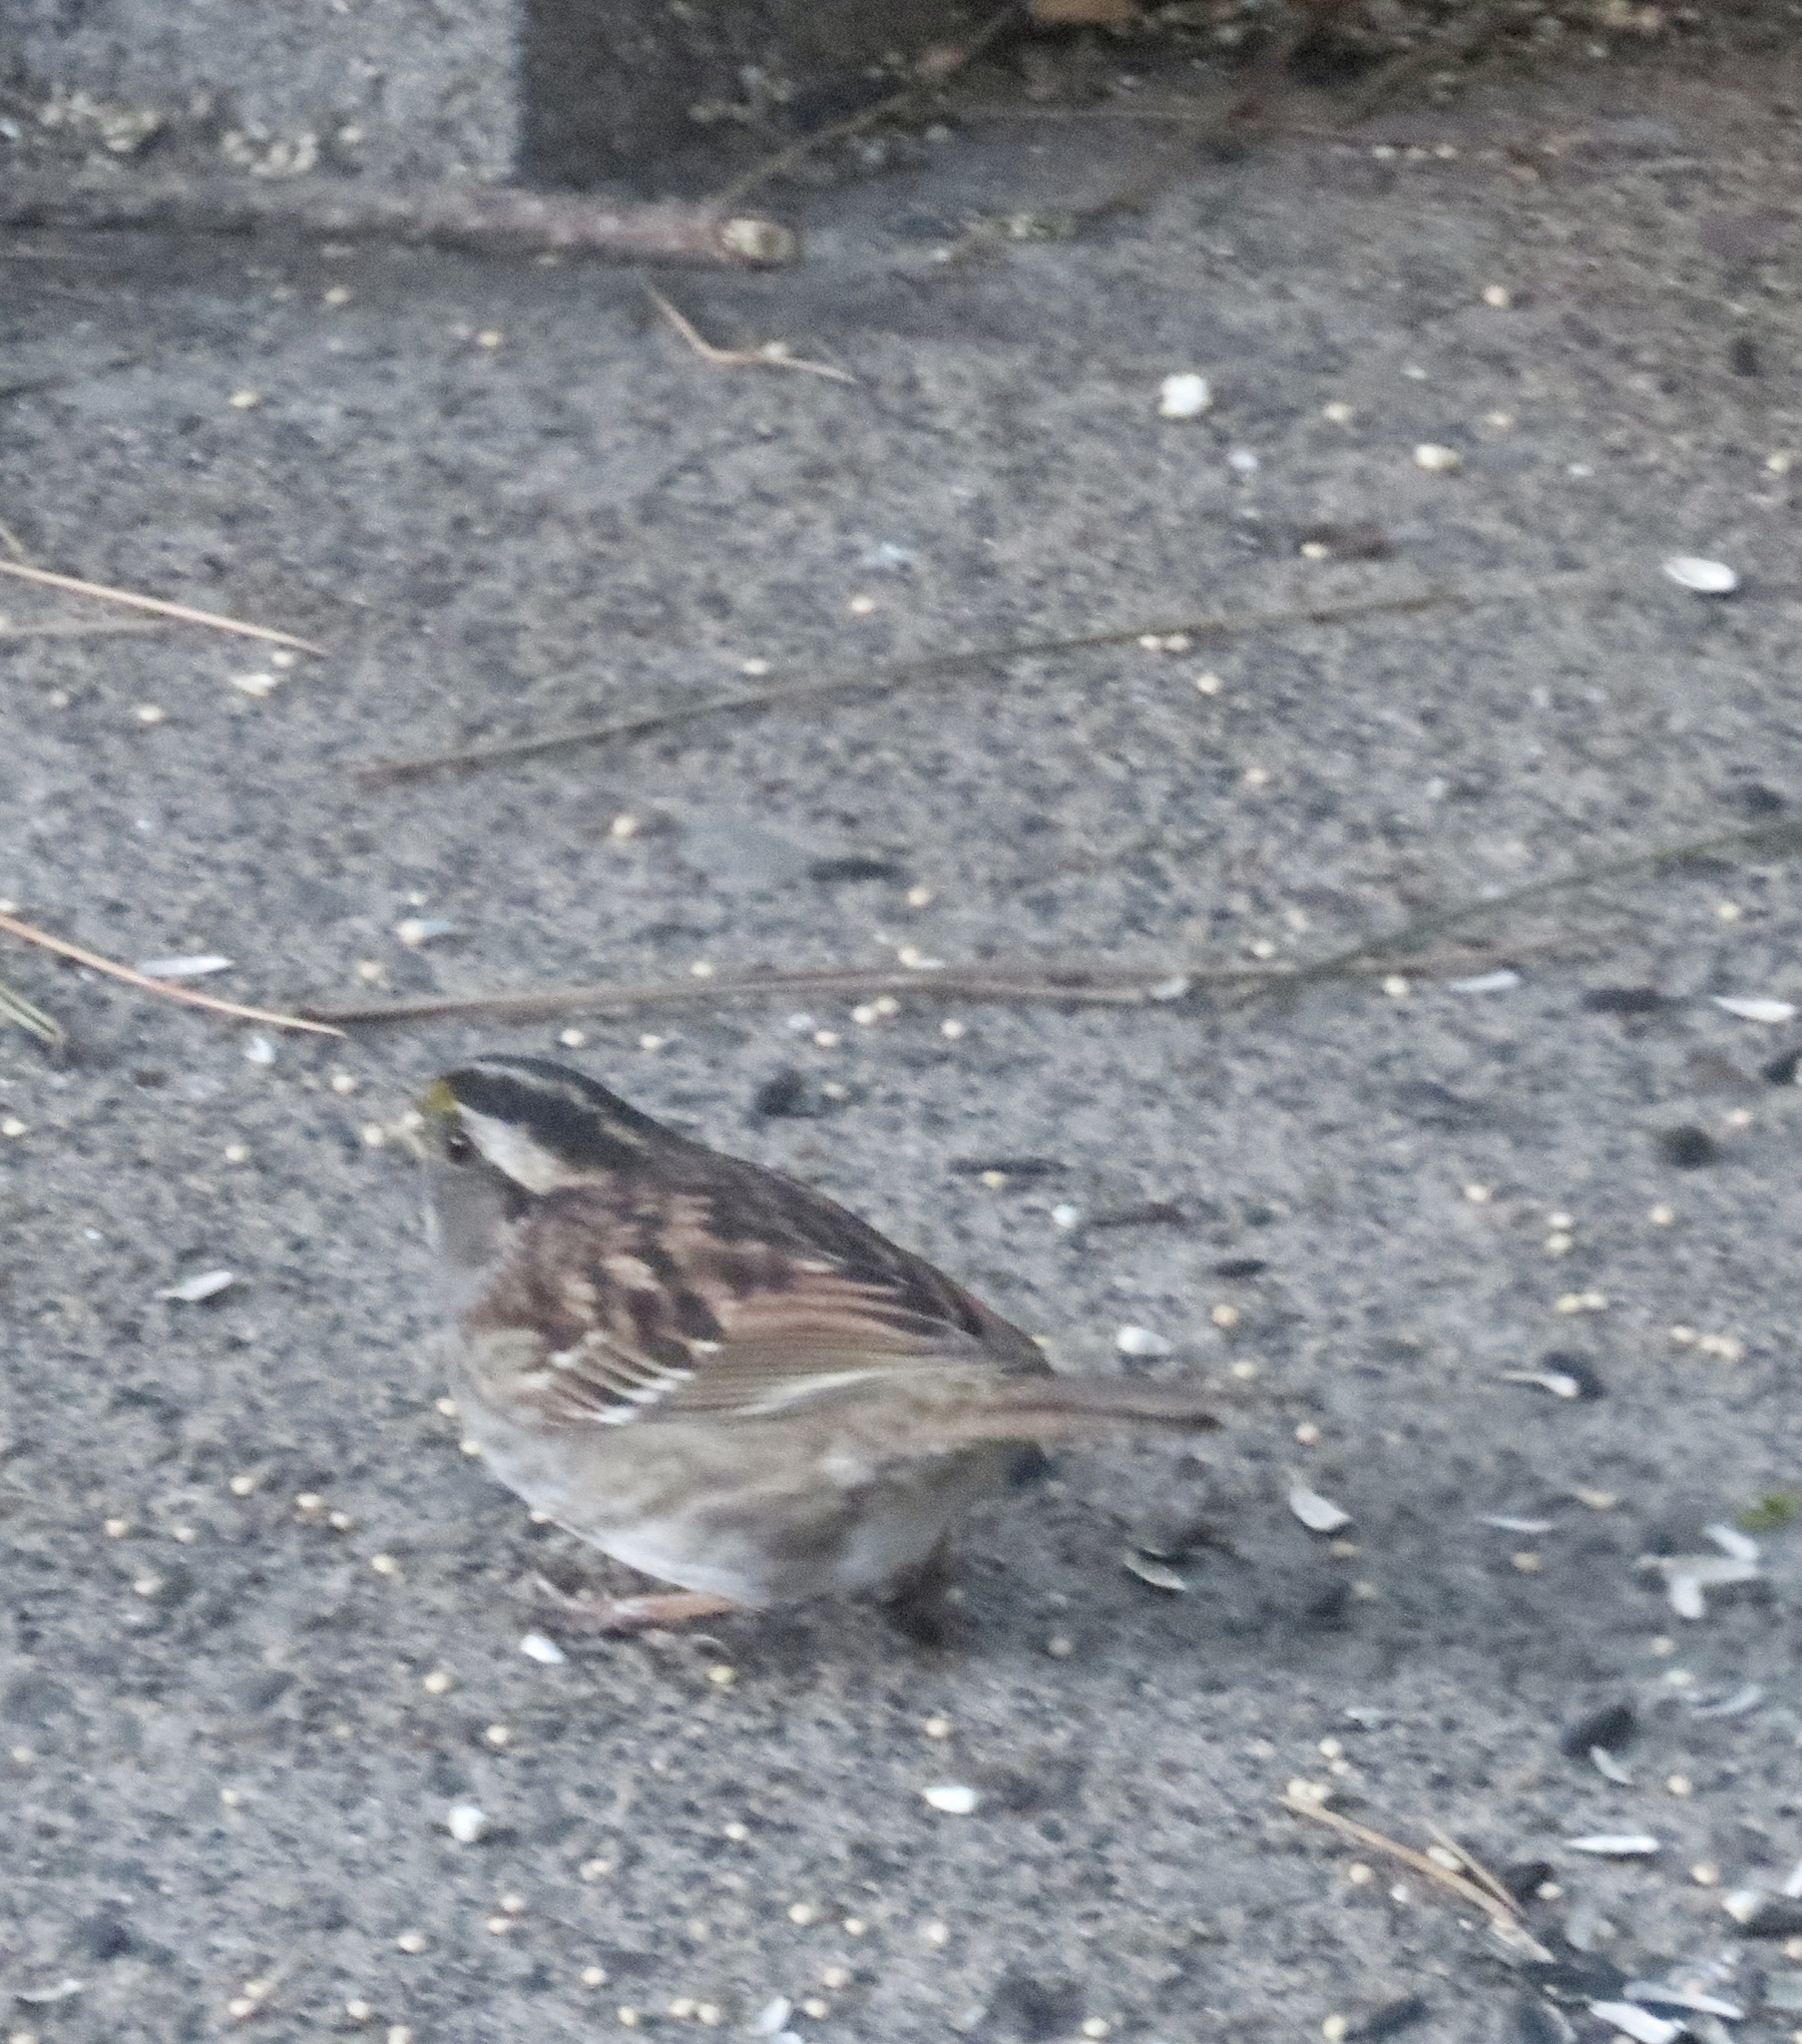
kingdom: Animalia
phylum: Chordata
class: Aves
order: Passeriformes
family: Passerellidae
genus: Zonotrichia
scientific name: Zonotrichia albicollis
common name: White-throated sparrow
